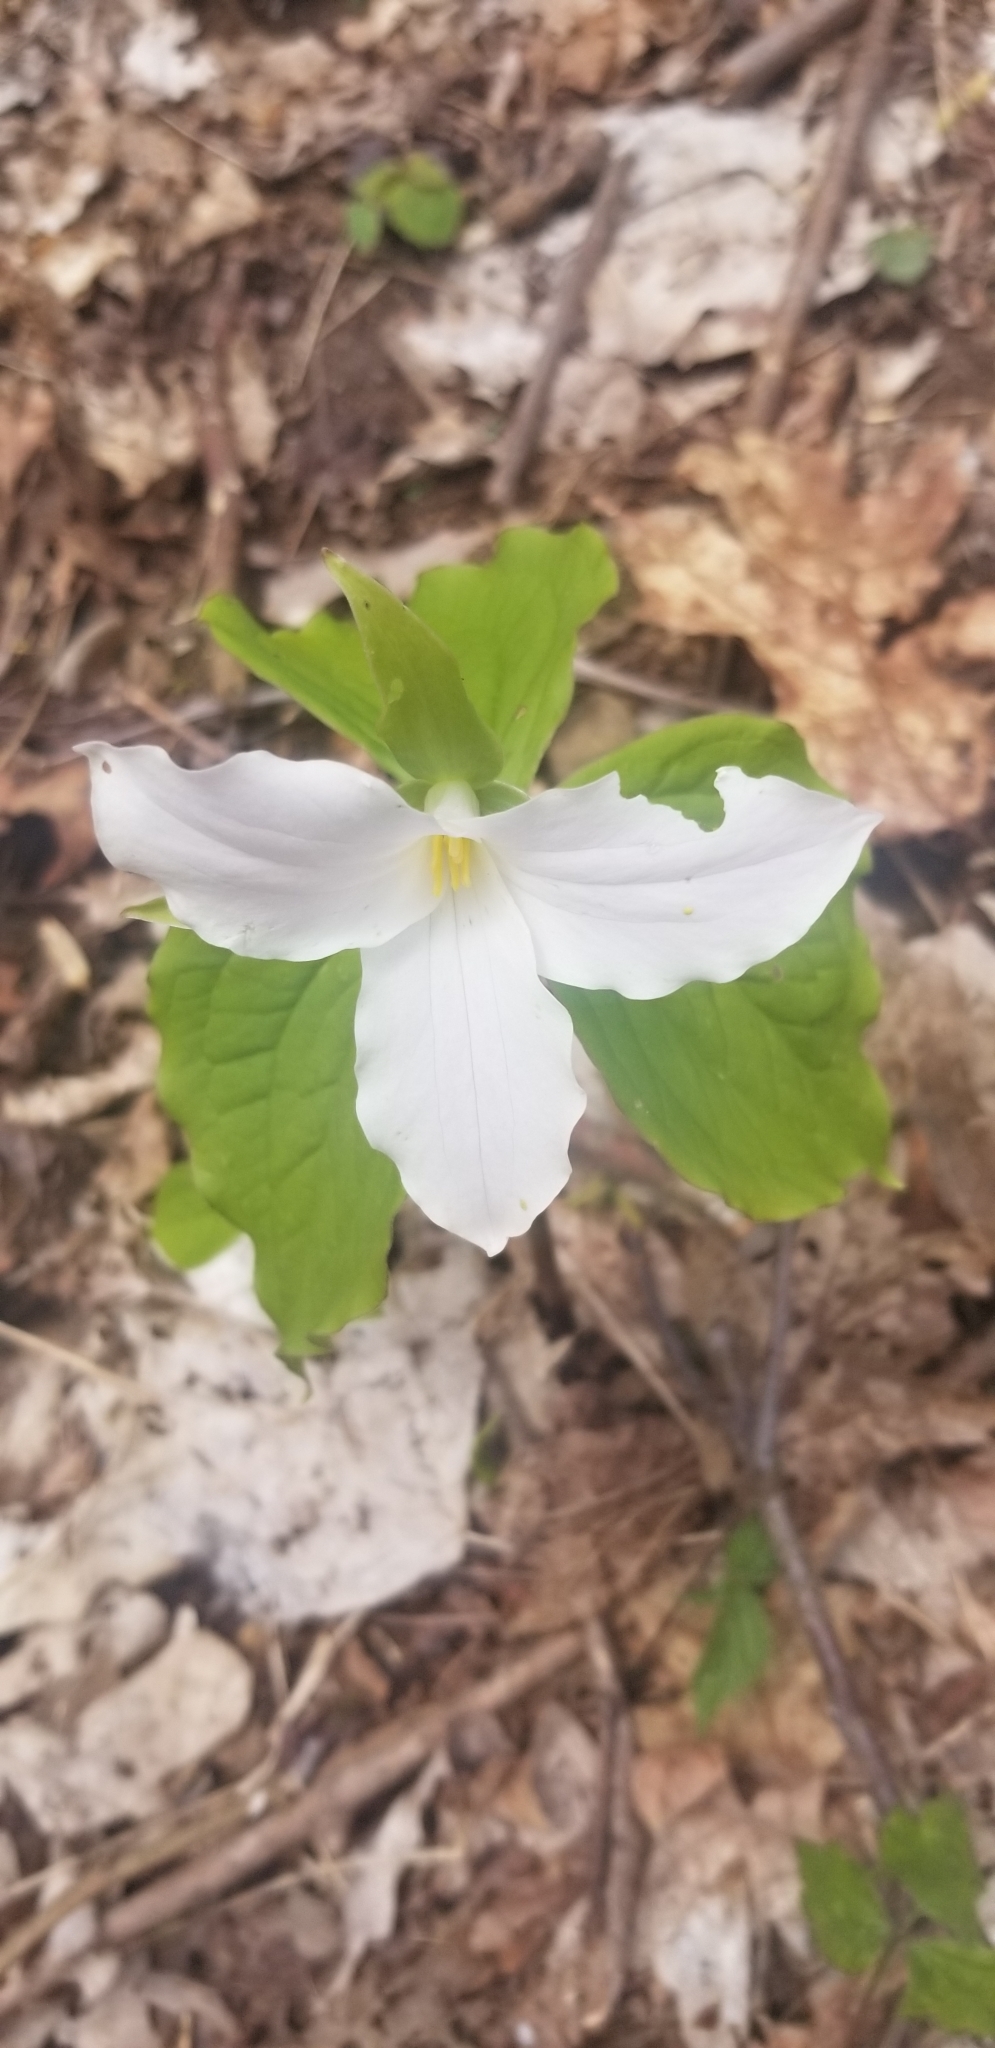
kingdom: Plantae
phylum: Tracheophyta
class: Liliopsida
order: Liliales
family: Melanthiaceae
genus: Trillium
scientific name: Trillium grandiflorum
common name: Great white trillium
